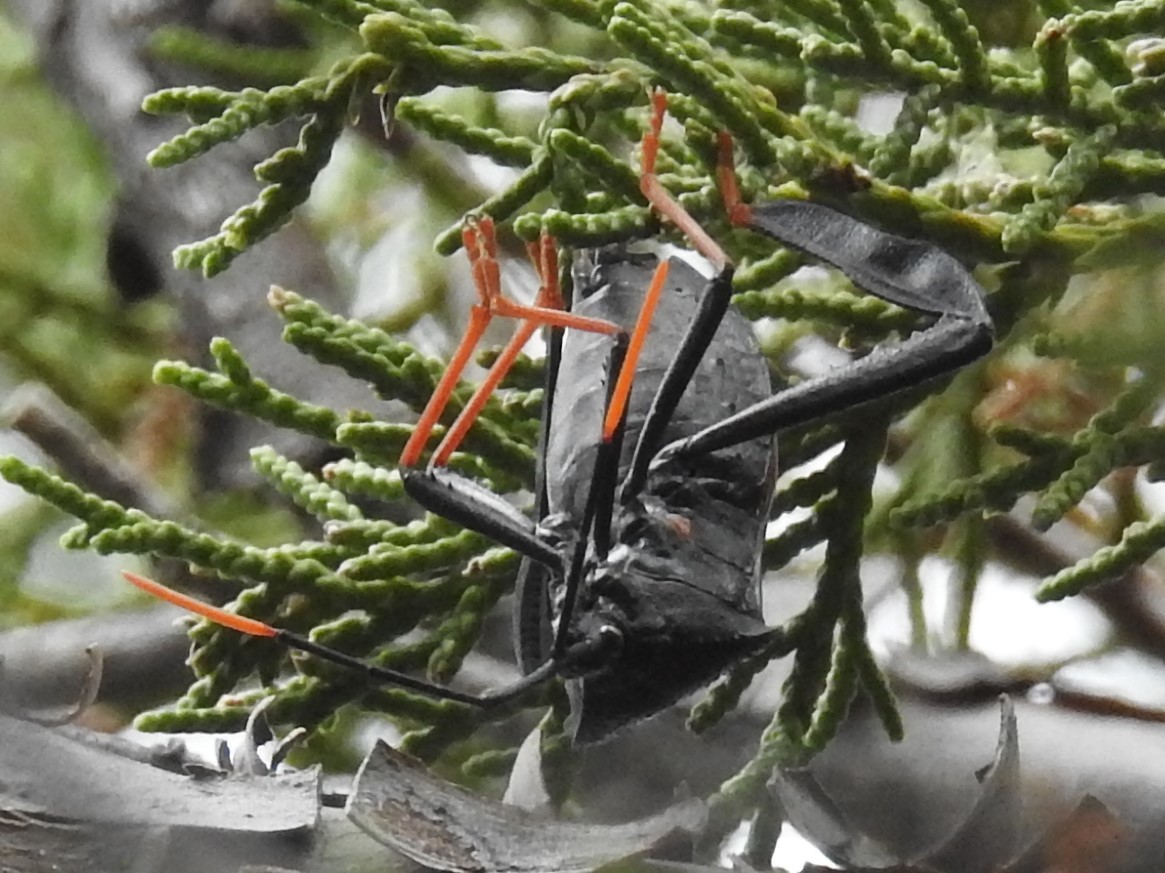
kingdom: Animalia
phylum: Arthropoda
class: Insecta
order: Hemiptera
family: Coreidae
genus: Acanthocephala
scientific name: Acanthocephala thomasi
